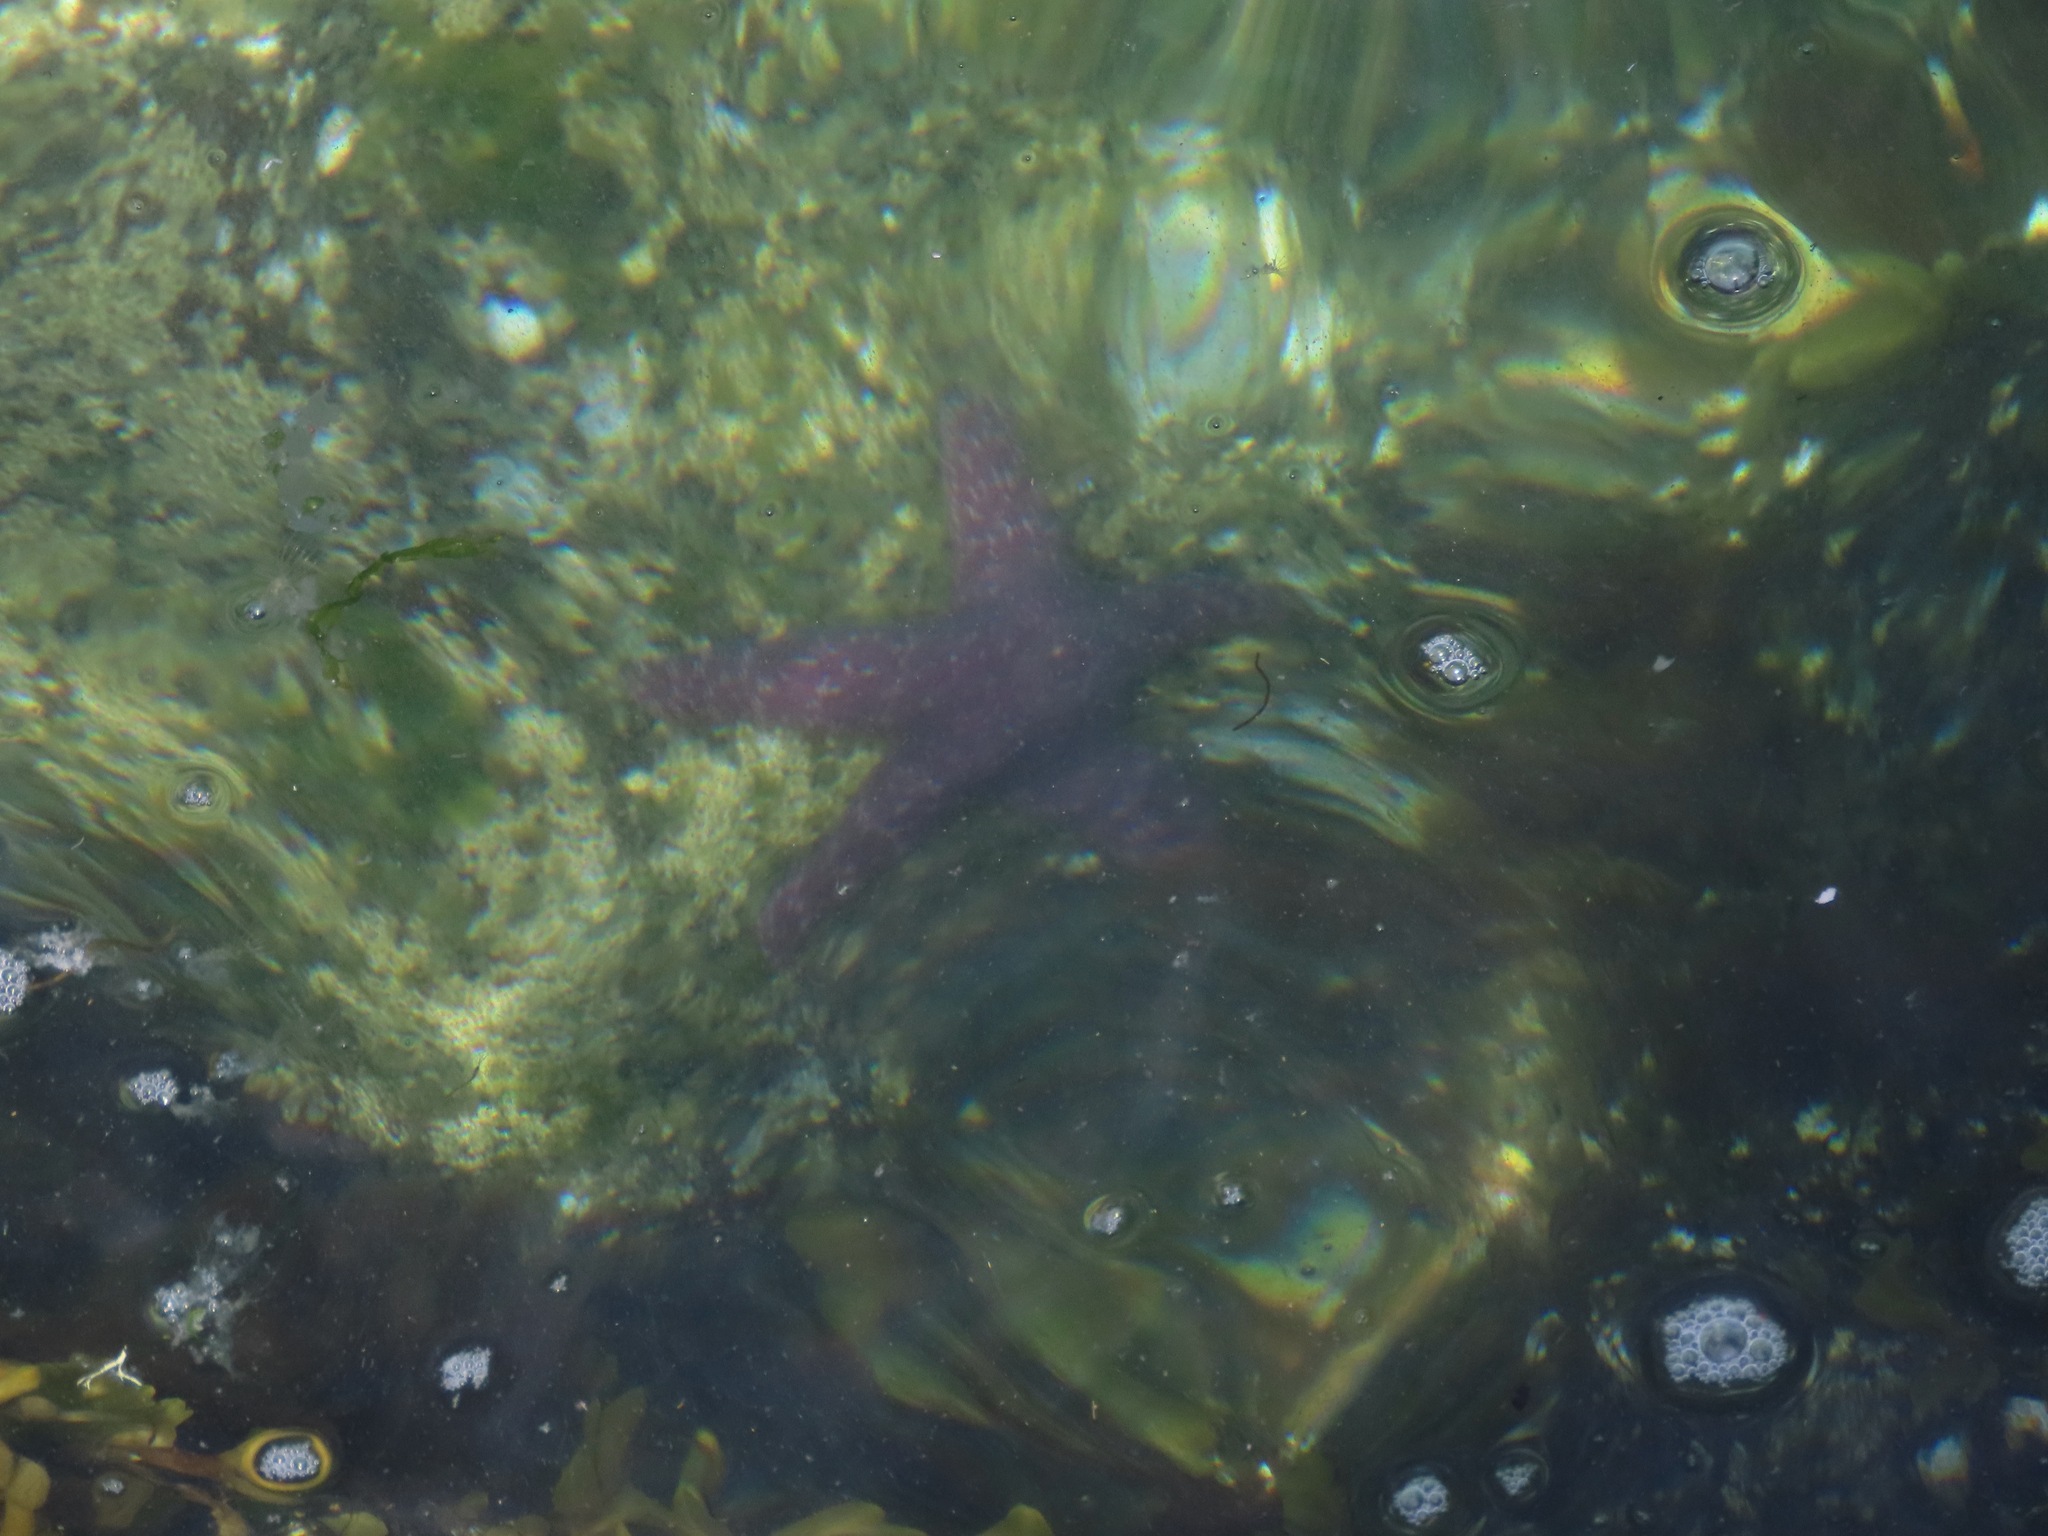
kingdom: Animalia
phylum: Echinodermata
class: Asteroidea
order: Forcipulatida
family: Asteriidae
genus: Pisaster
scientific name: Pisaster ochraceus
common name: Ochre stars
